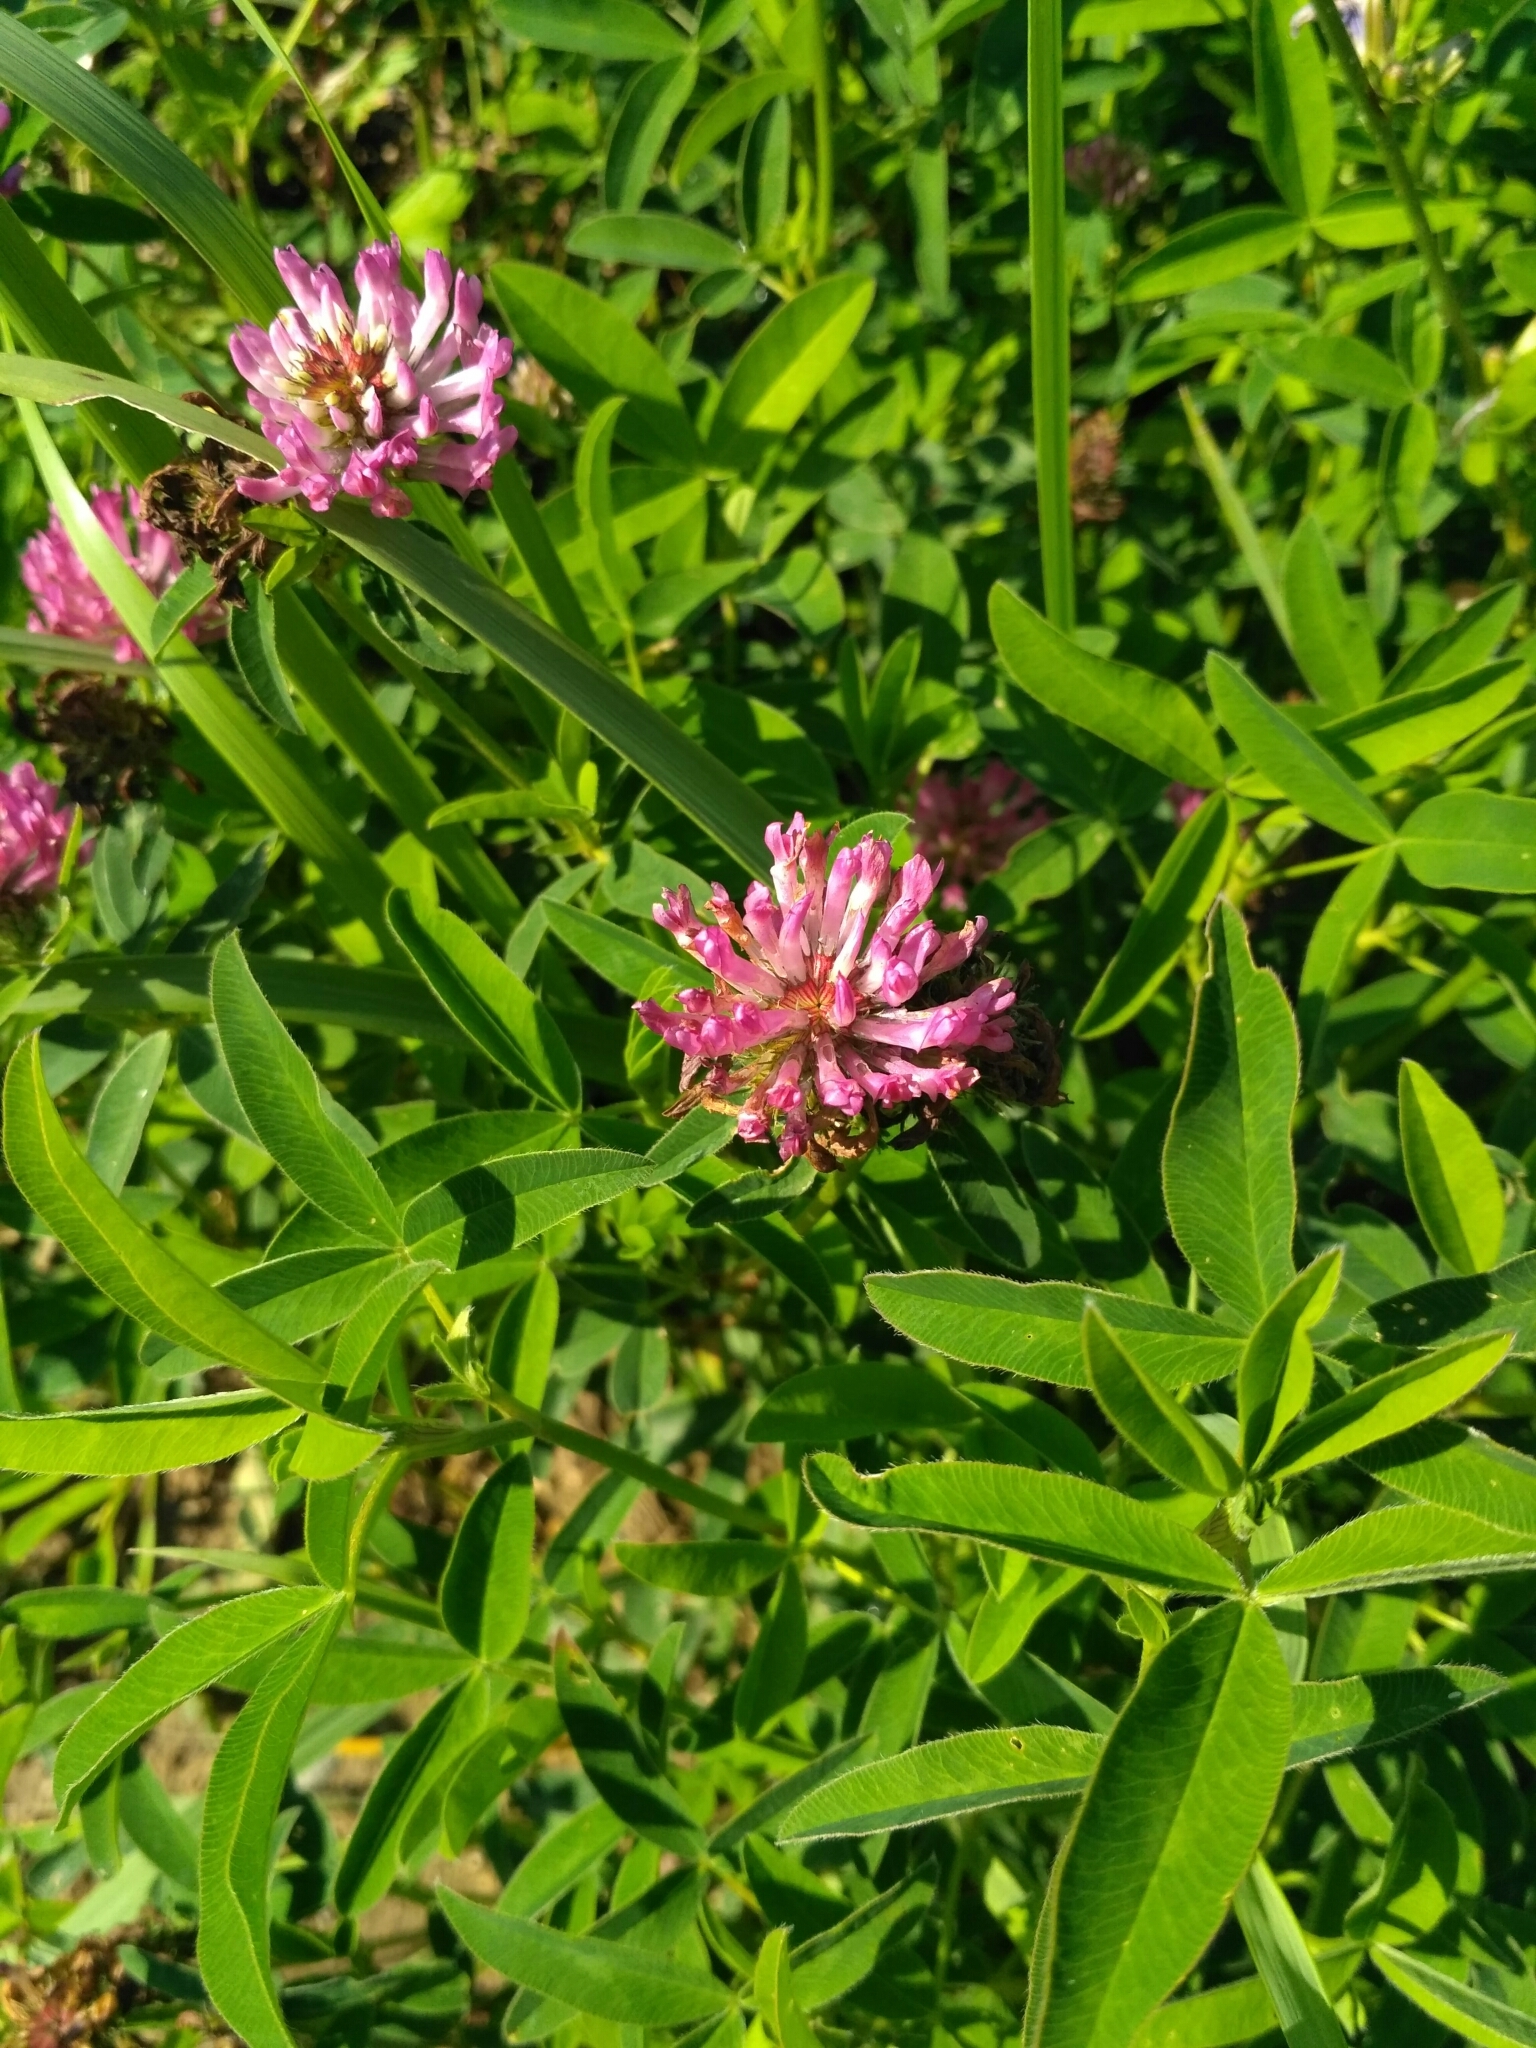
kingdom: Plantae
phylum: Tracheophyta
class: Magnoliopsida
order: Fabales
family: Fabaceae
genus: Trifolium
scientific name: Trifolium medium
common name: Zigzag clover
